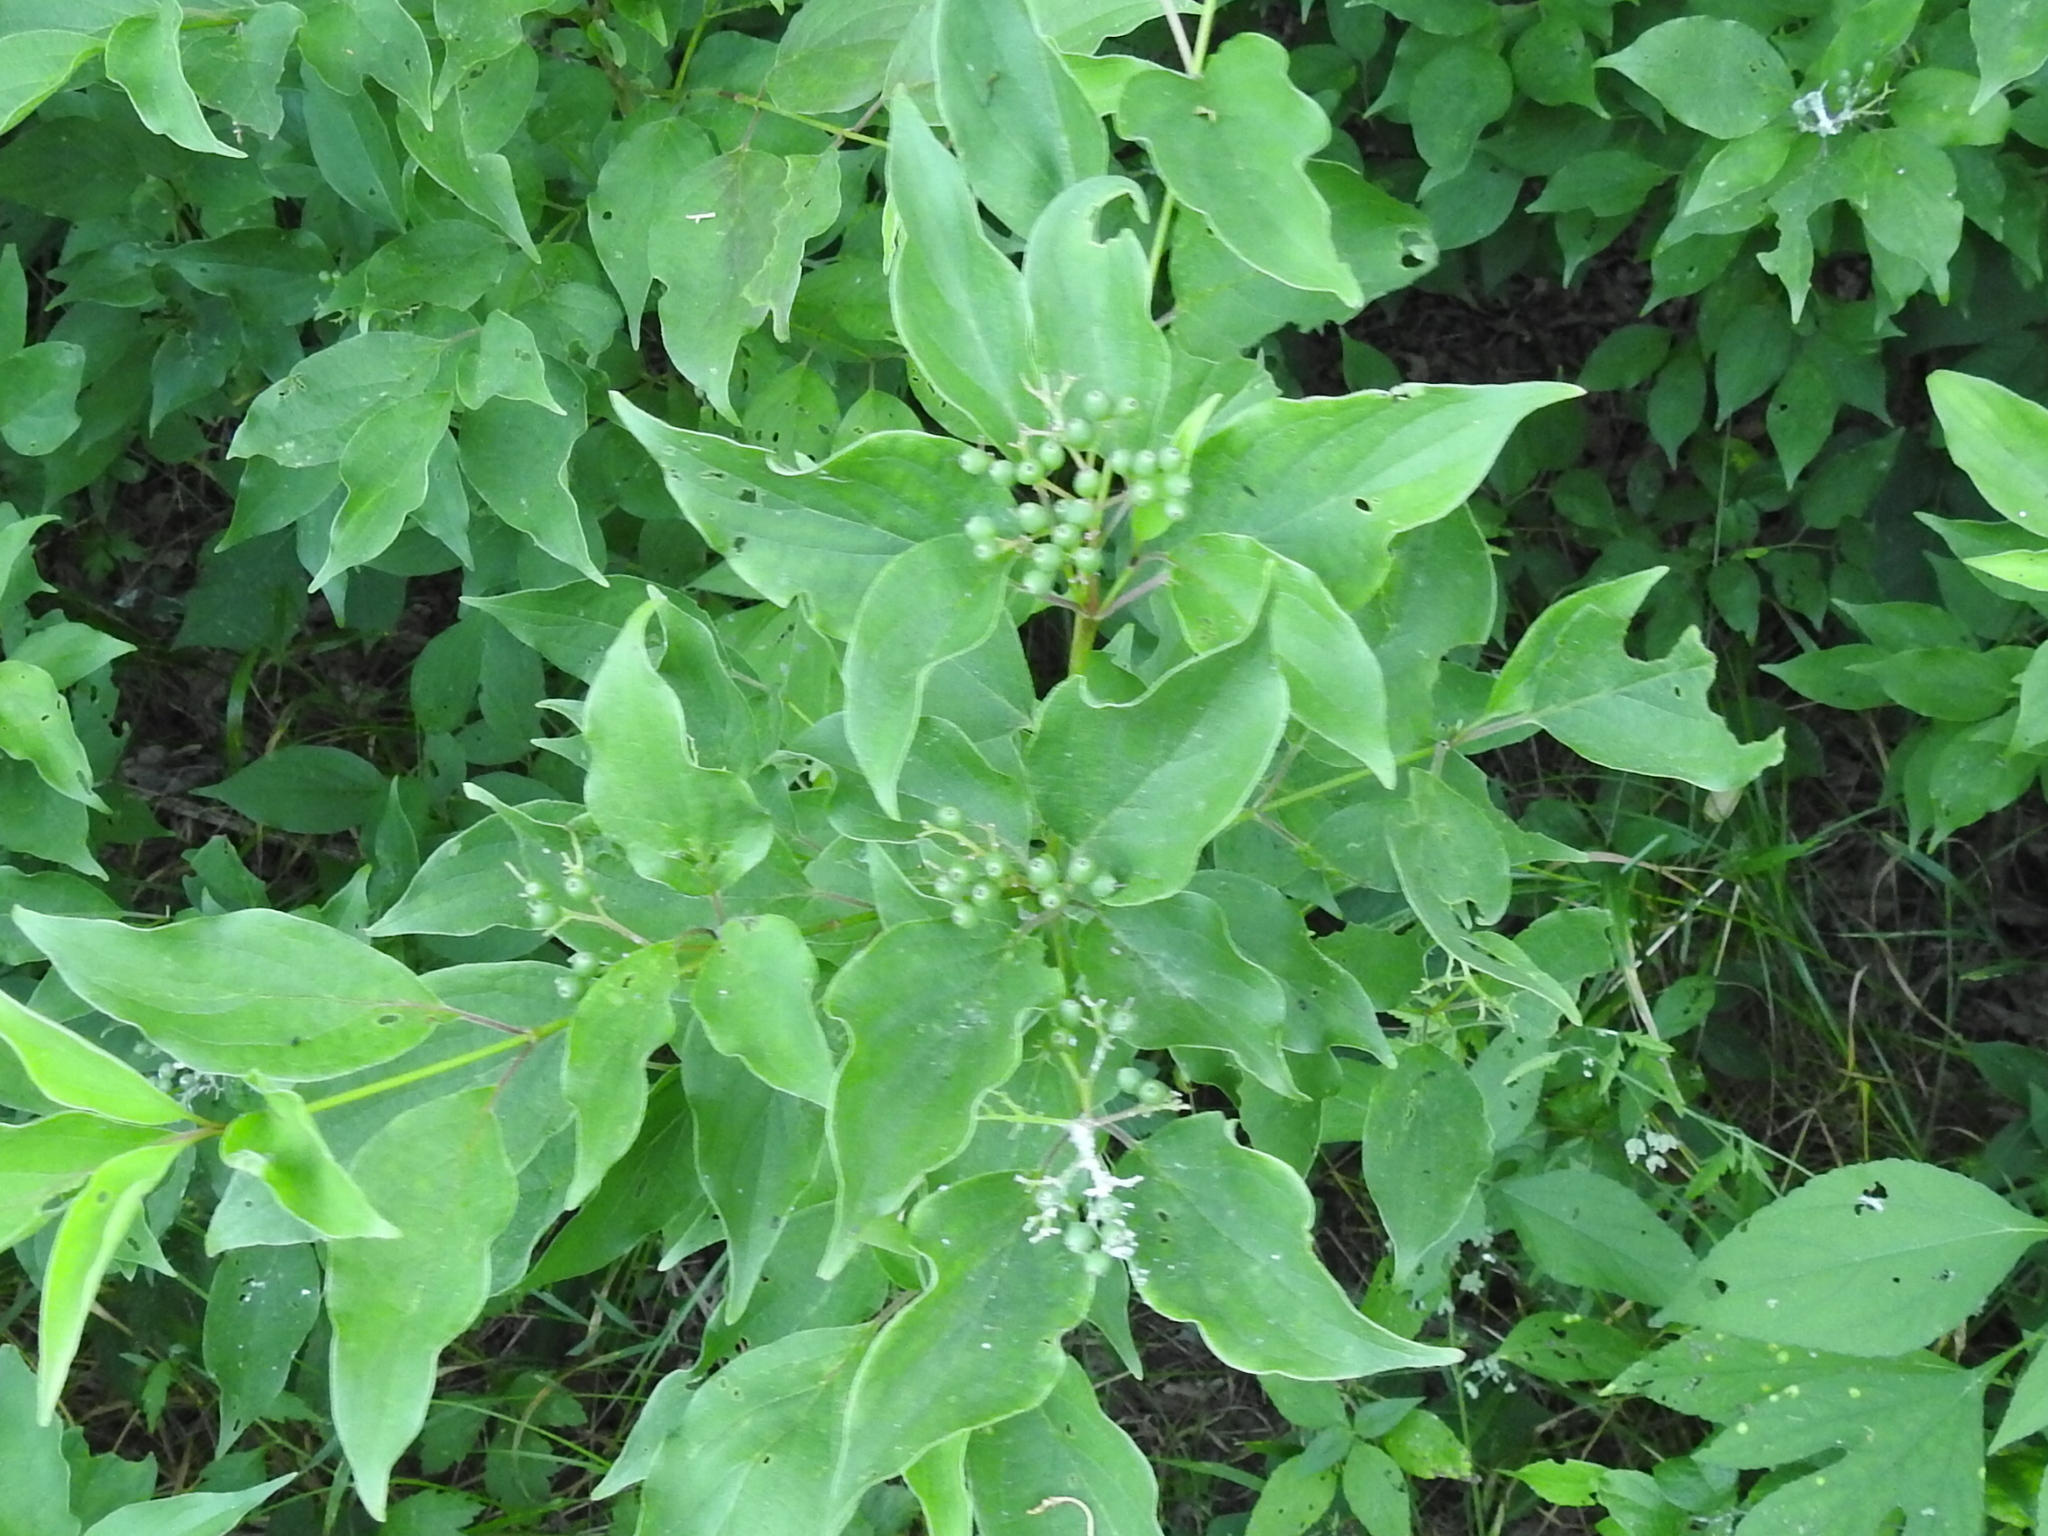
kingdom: Plantae
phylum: Tracheophyta
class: Magnoliopsida
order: Cornales
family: Cornaceae
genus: Cornus
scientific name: Cornus drummondii
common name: Rough-leaf dogwood
